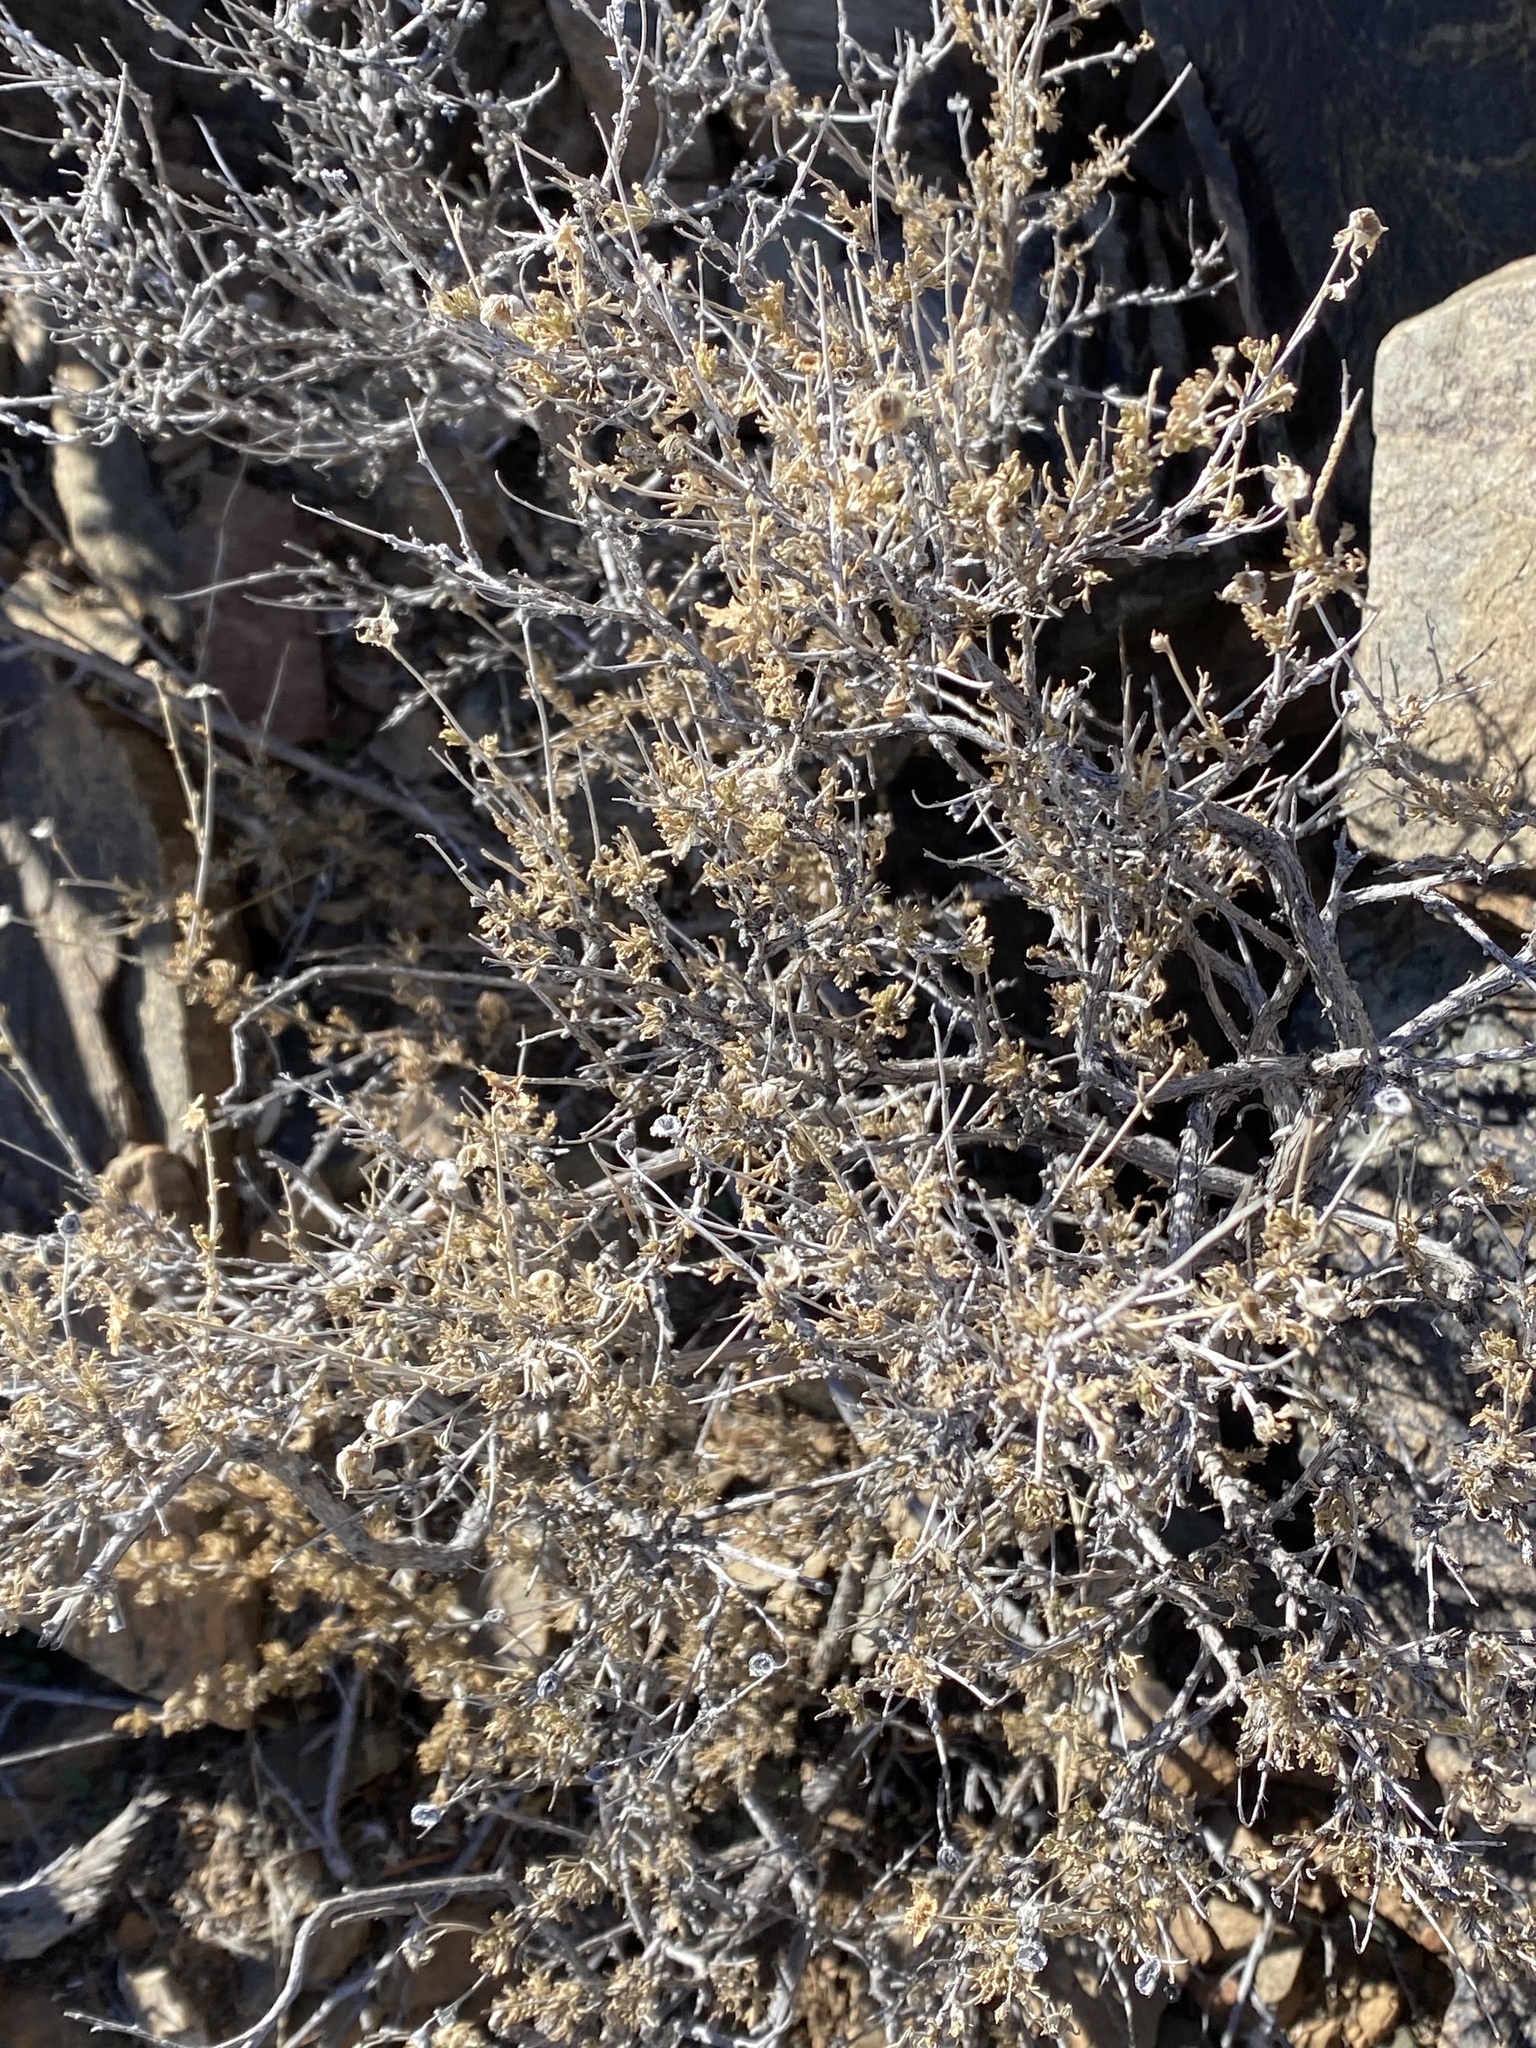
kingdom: Plantae
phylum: Tracheophyta
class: Magnoliopsida
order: Rosales
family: Rosaceae
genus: Fallugia
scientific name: Fallugia paradoxa
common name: Apache-plume
